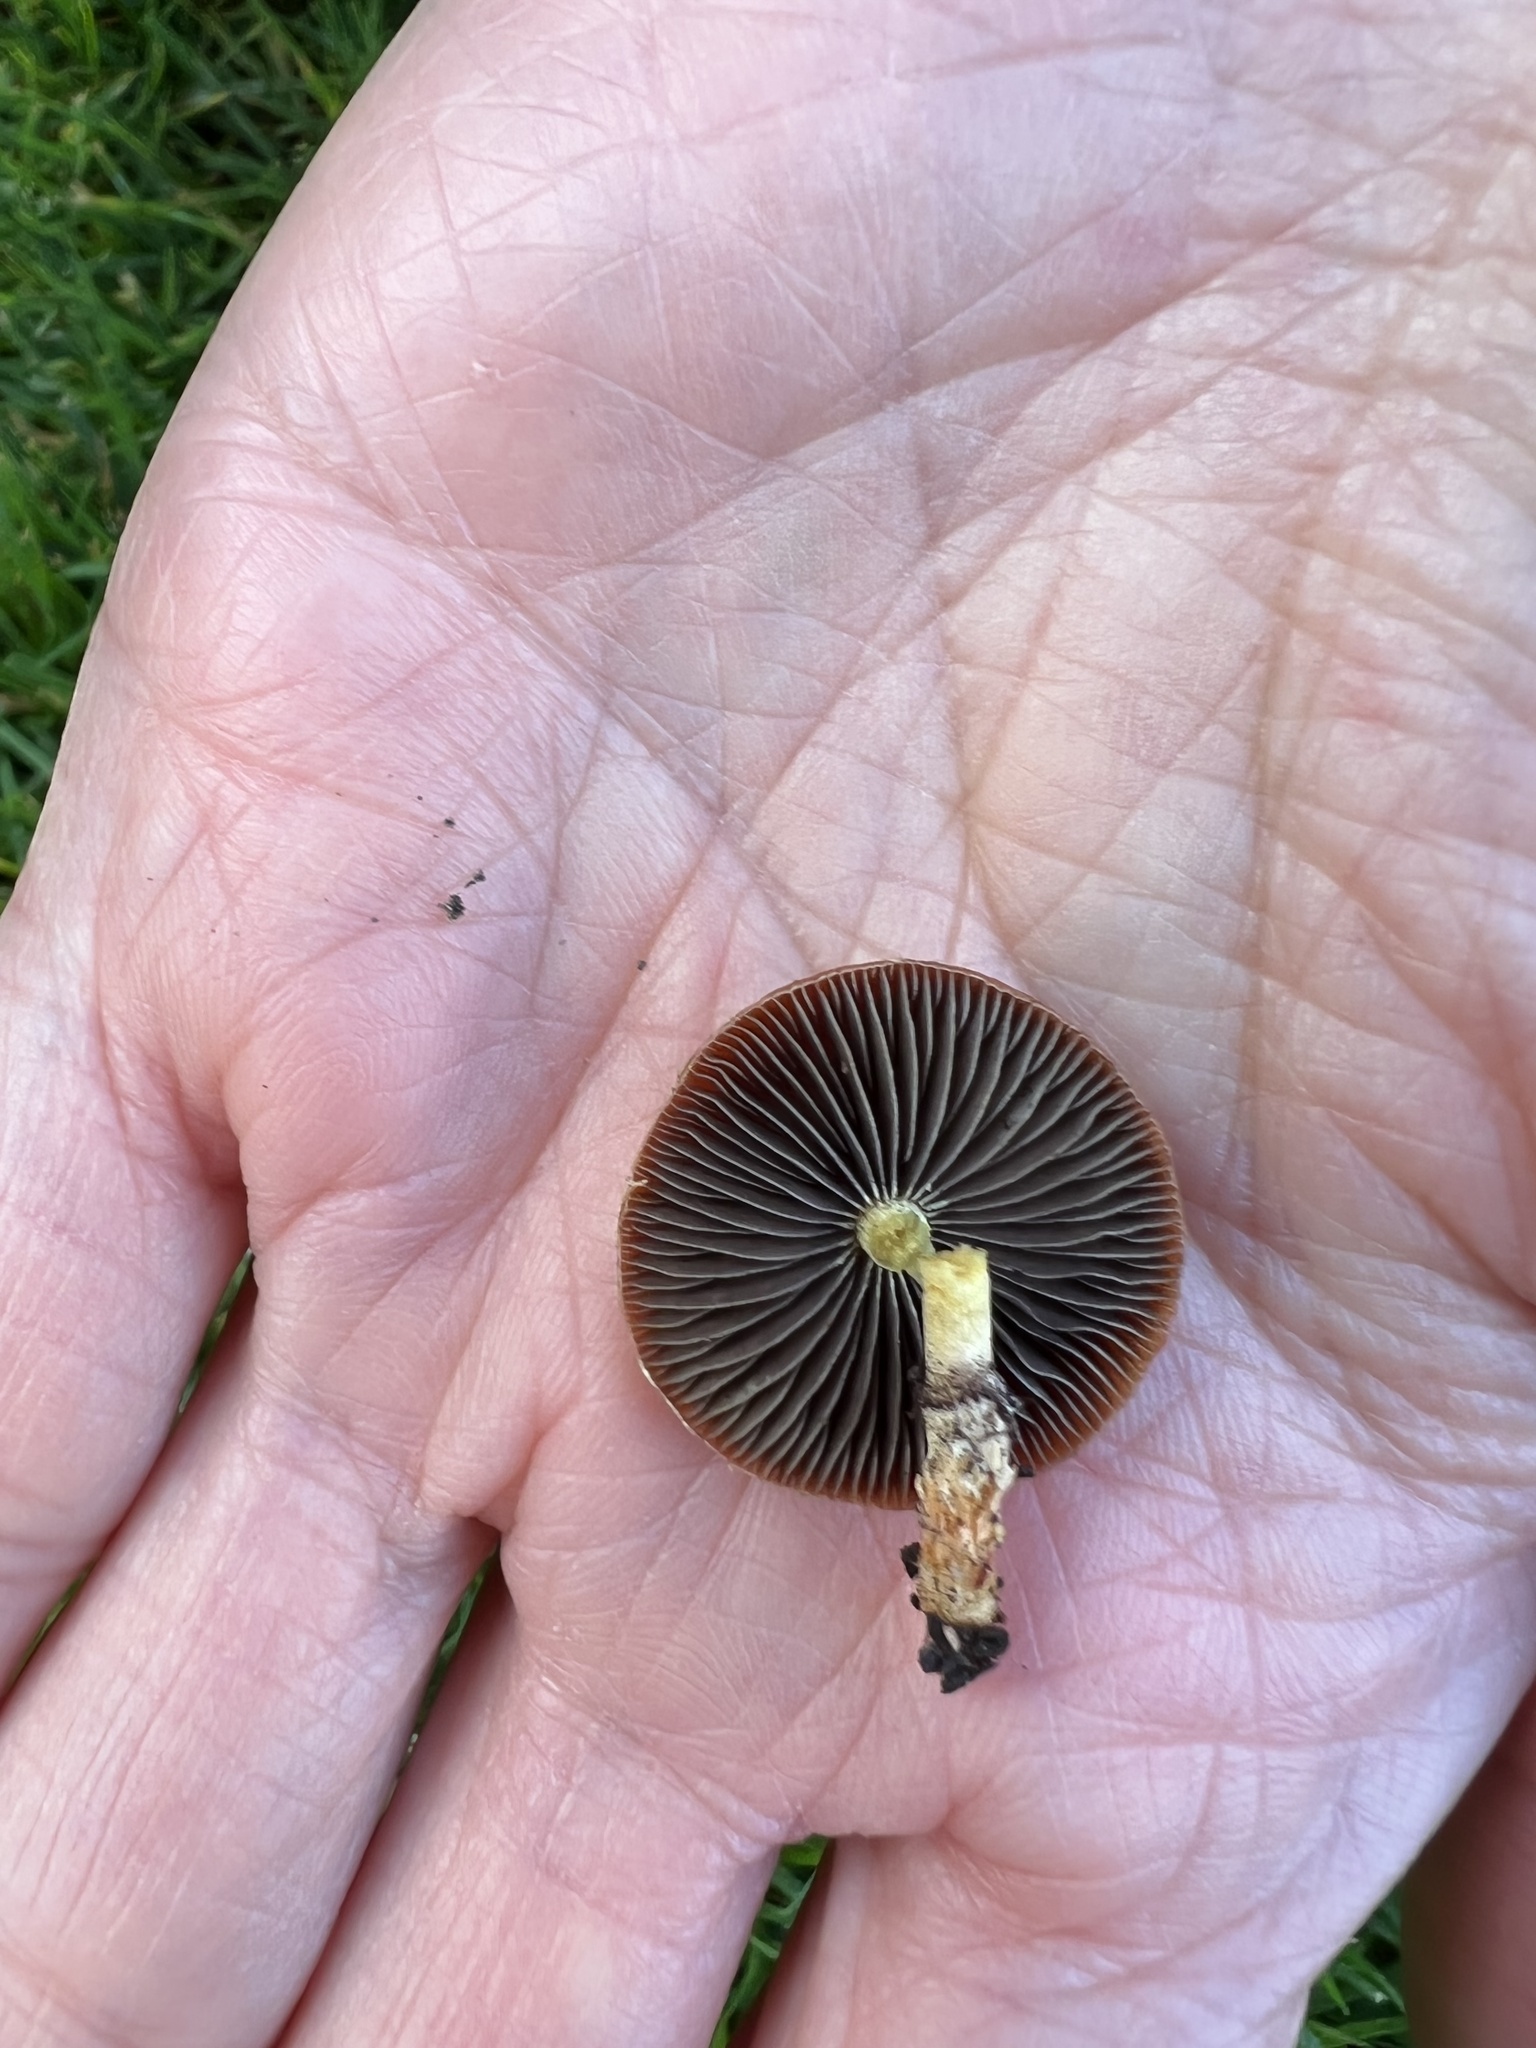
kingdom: Fungi
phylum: Basidiomycota
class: Agaricomycetes
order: Agaricales
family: Strophariaceae
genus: Leratiomyces
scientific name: Leratiomyces ceres
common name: Redlead roundhead
